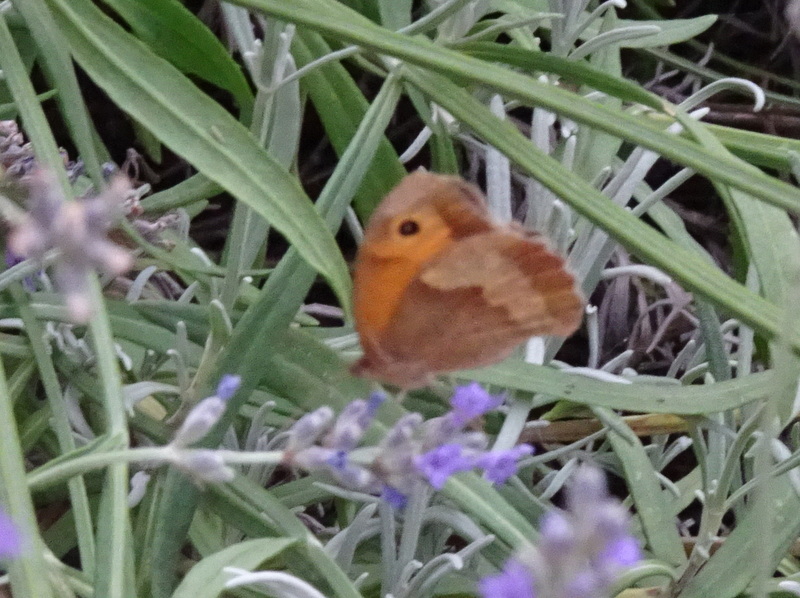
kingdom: Animalia
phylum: Arthropoda
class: Insecta
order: Lepidoptera
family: Nymphalidae
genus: Maniola
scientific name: Maniola jurtina
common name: Meadow brown
